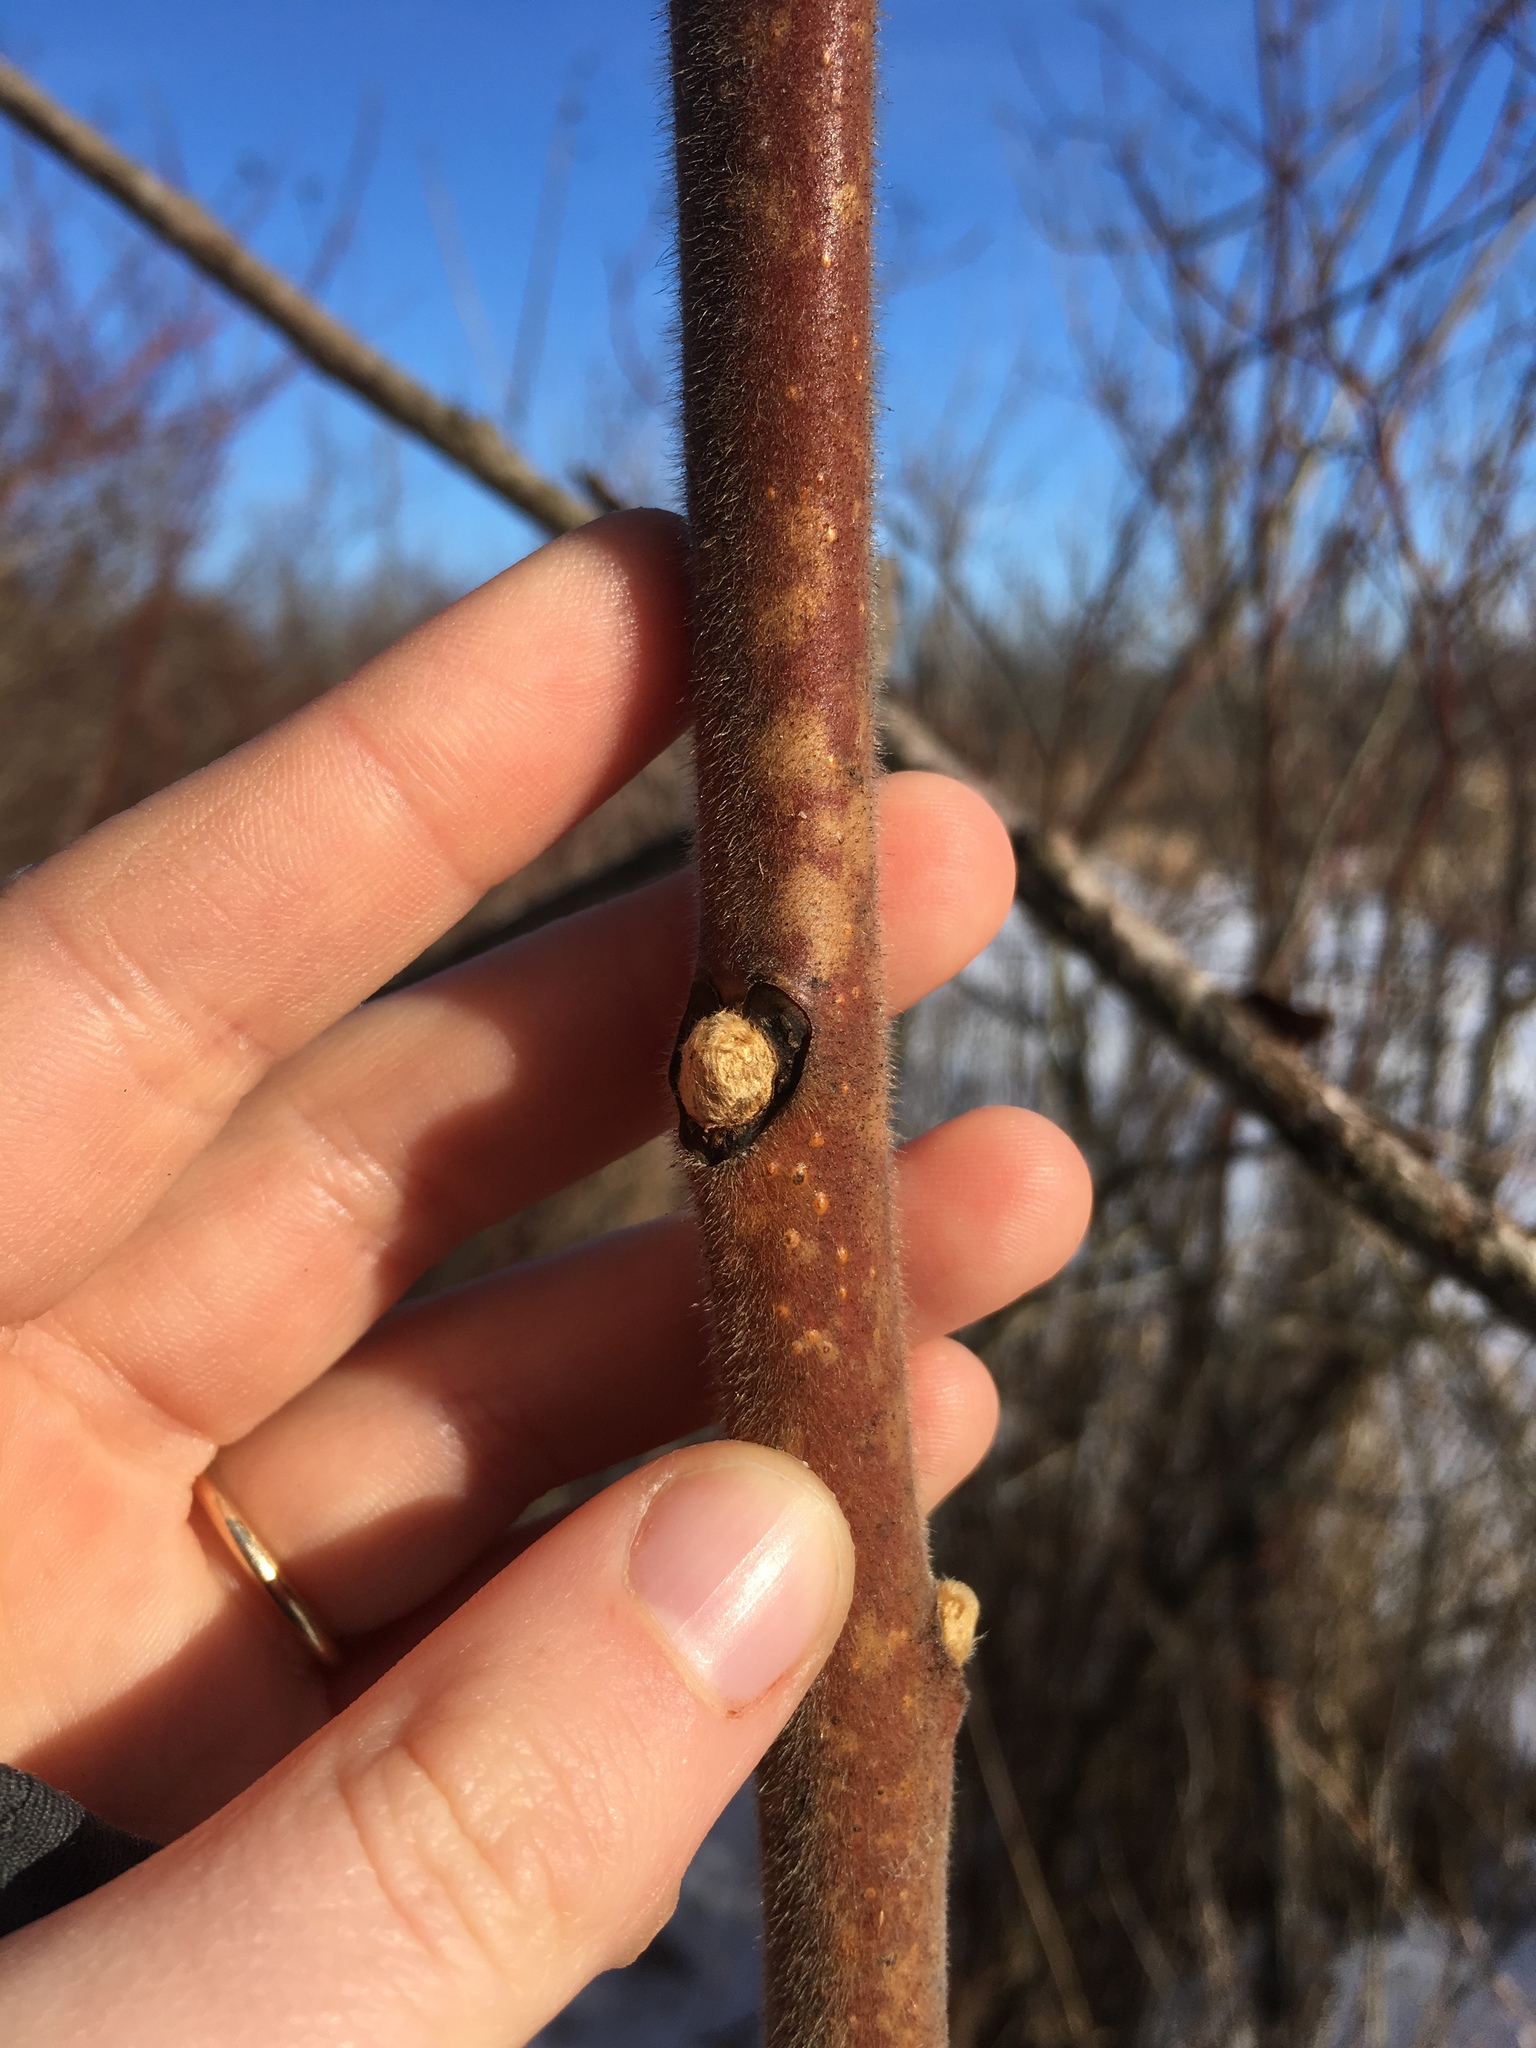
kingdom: Plantae
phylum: Tracheophyta
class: Magnoliopsida
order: Sapindales
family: Anacardiaceae
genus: Rhus
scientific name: Rhus typhina
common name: Staghorn sumac
